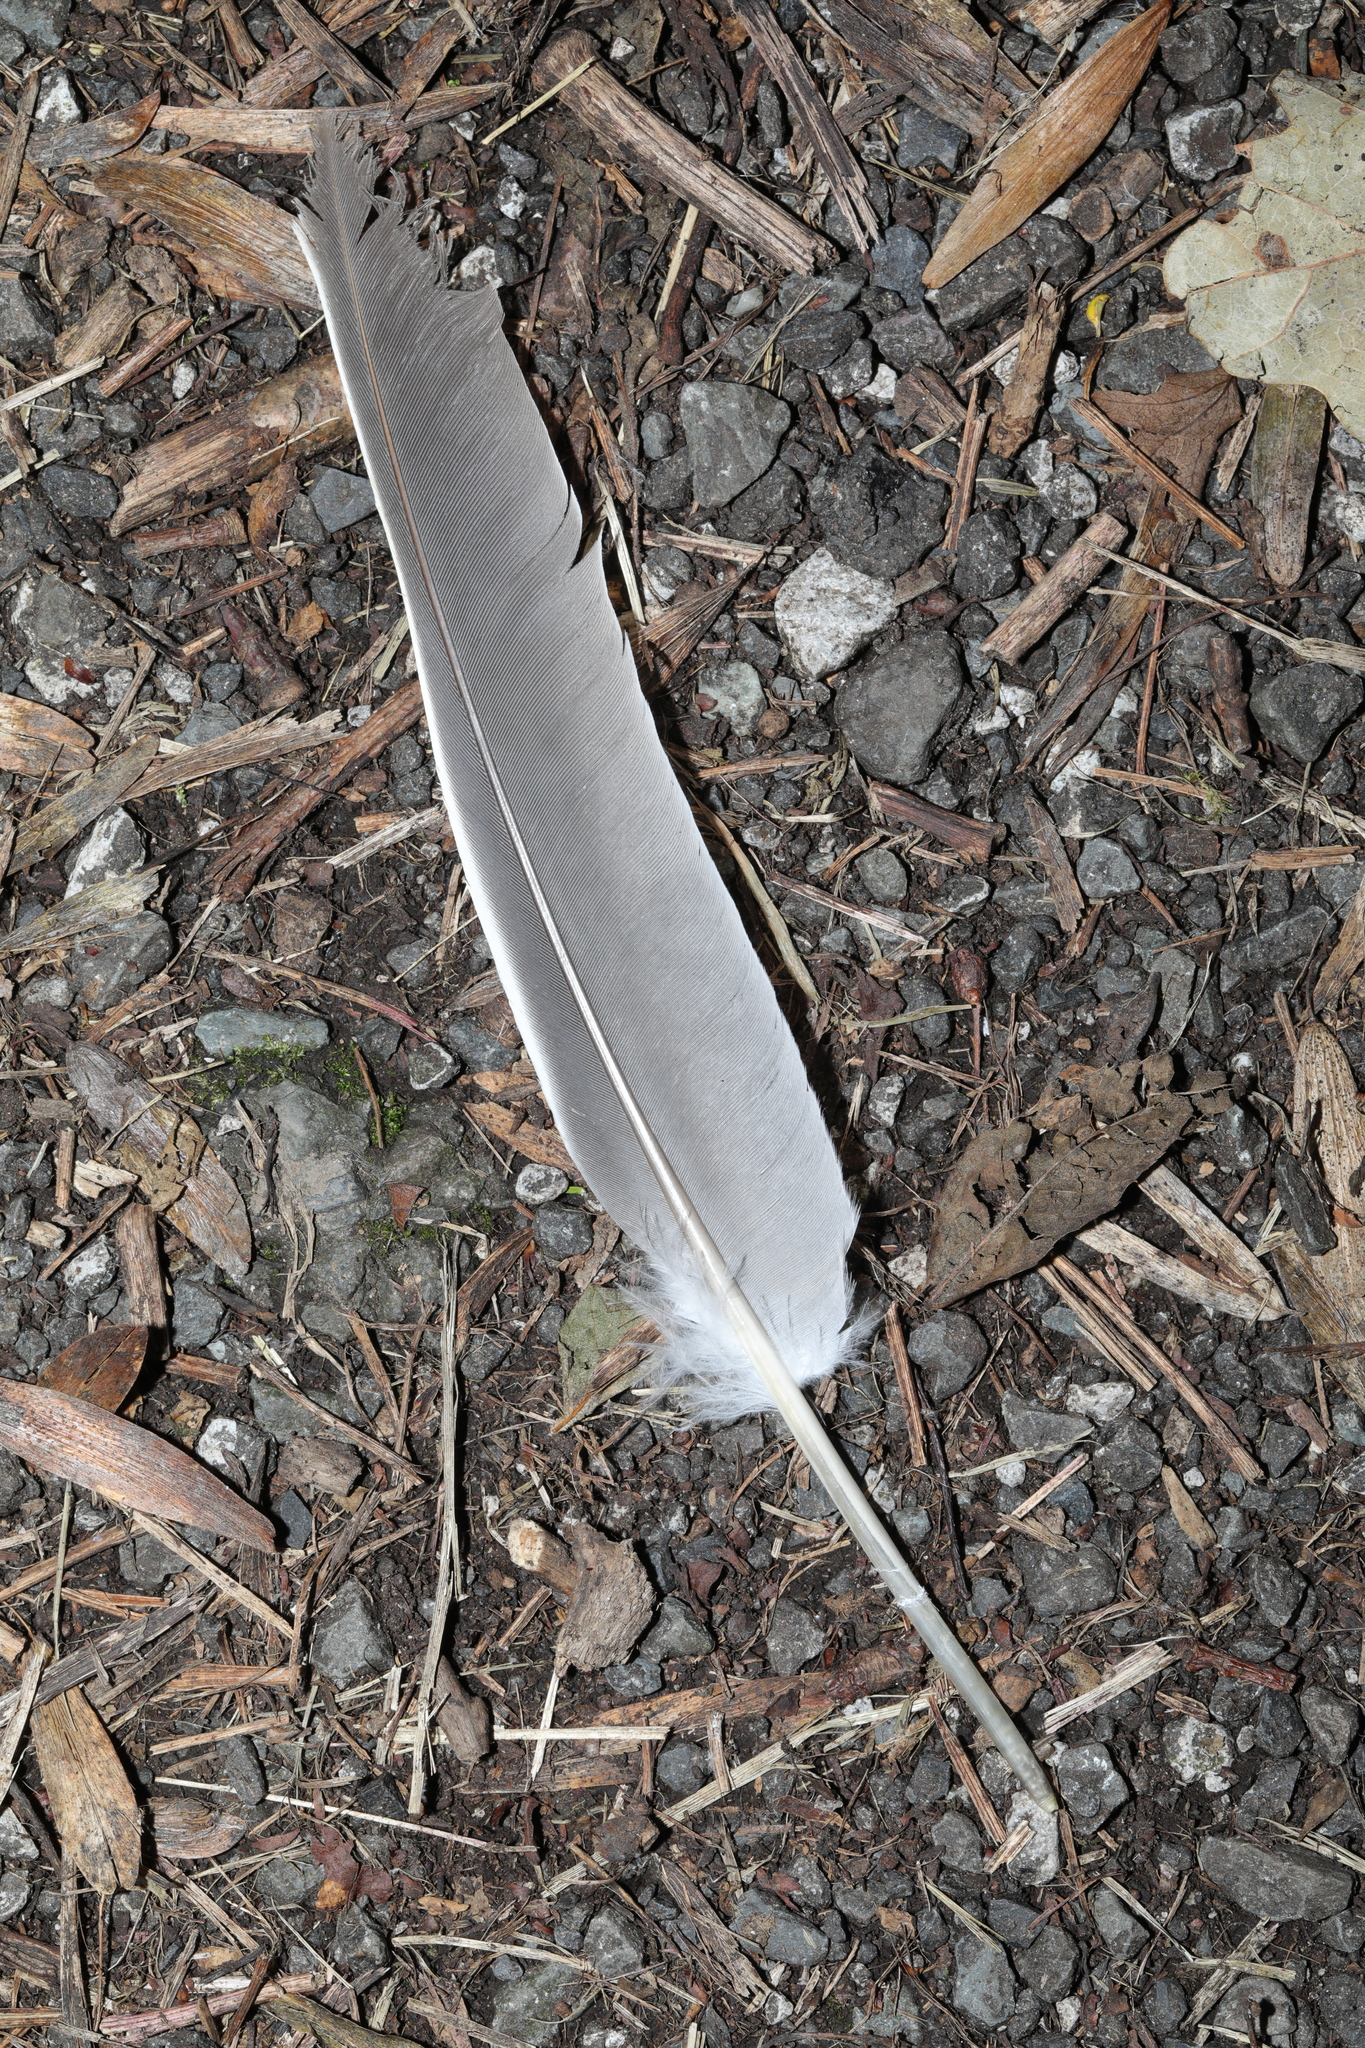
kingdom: Animalia
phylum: Chordata
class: Aves
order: Columbiformes
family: Columbidae
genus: Columba
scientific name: Columba palumbus
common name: Common wood pigeon
